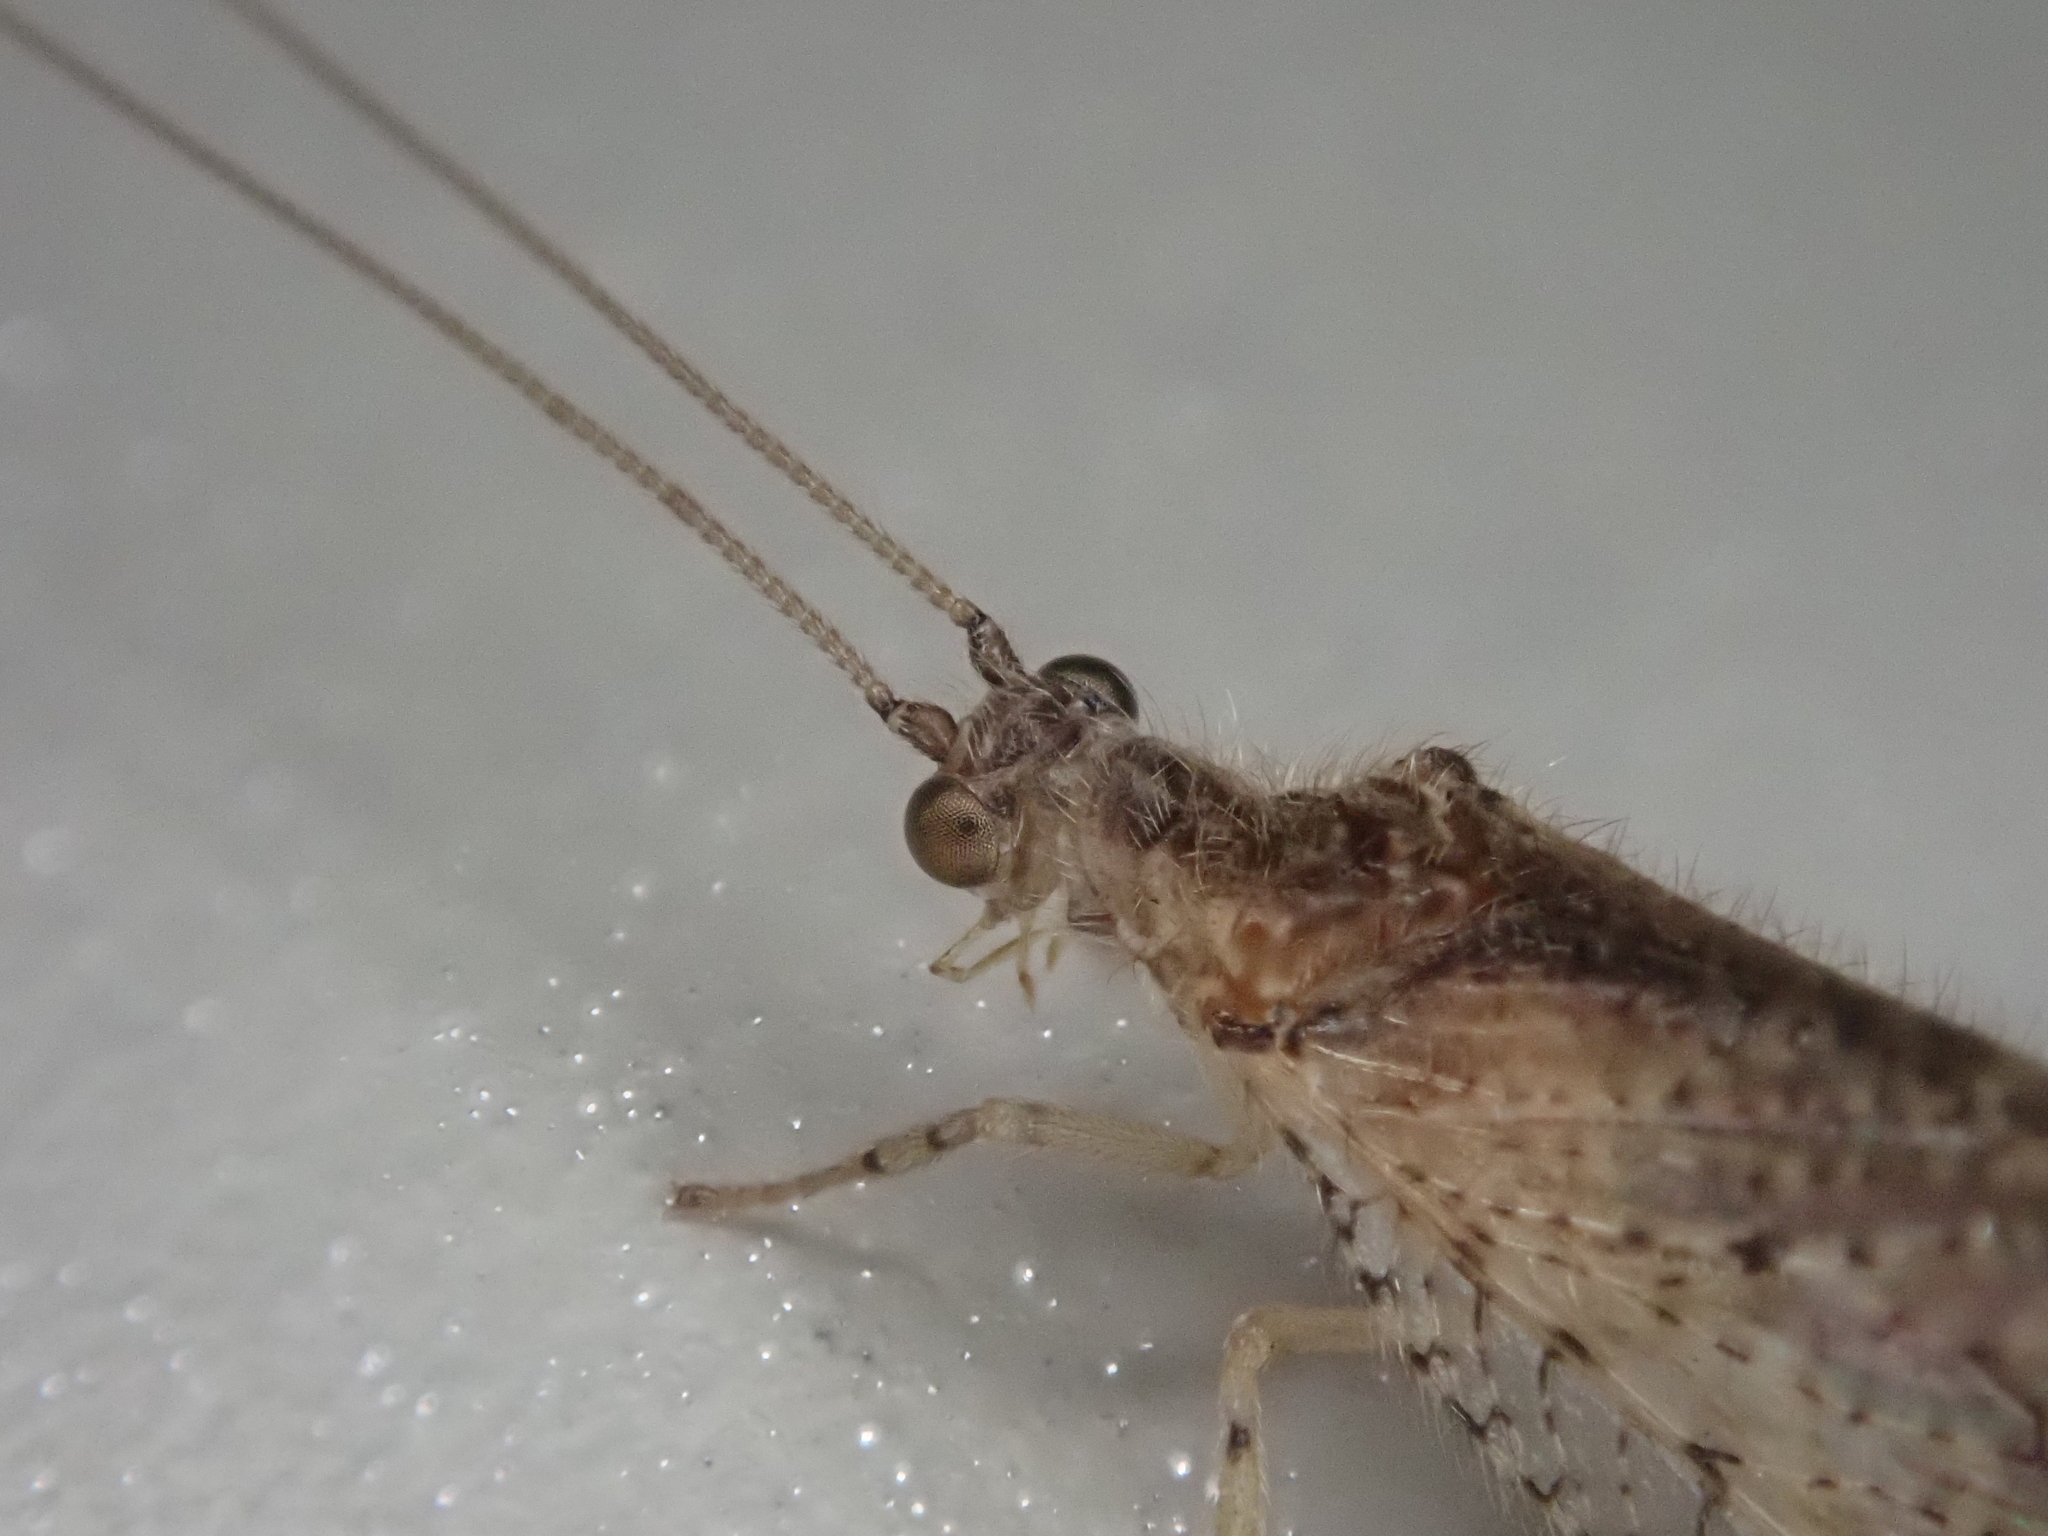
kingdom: Animalia
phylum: Arthropoda
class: Insecta
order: Neuroptera
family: Hemerobiidae
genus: Nusalala
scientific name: Nusalala tessellata
